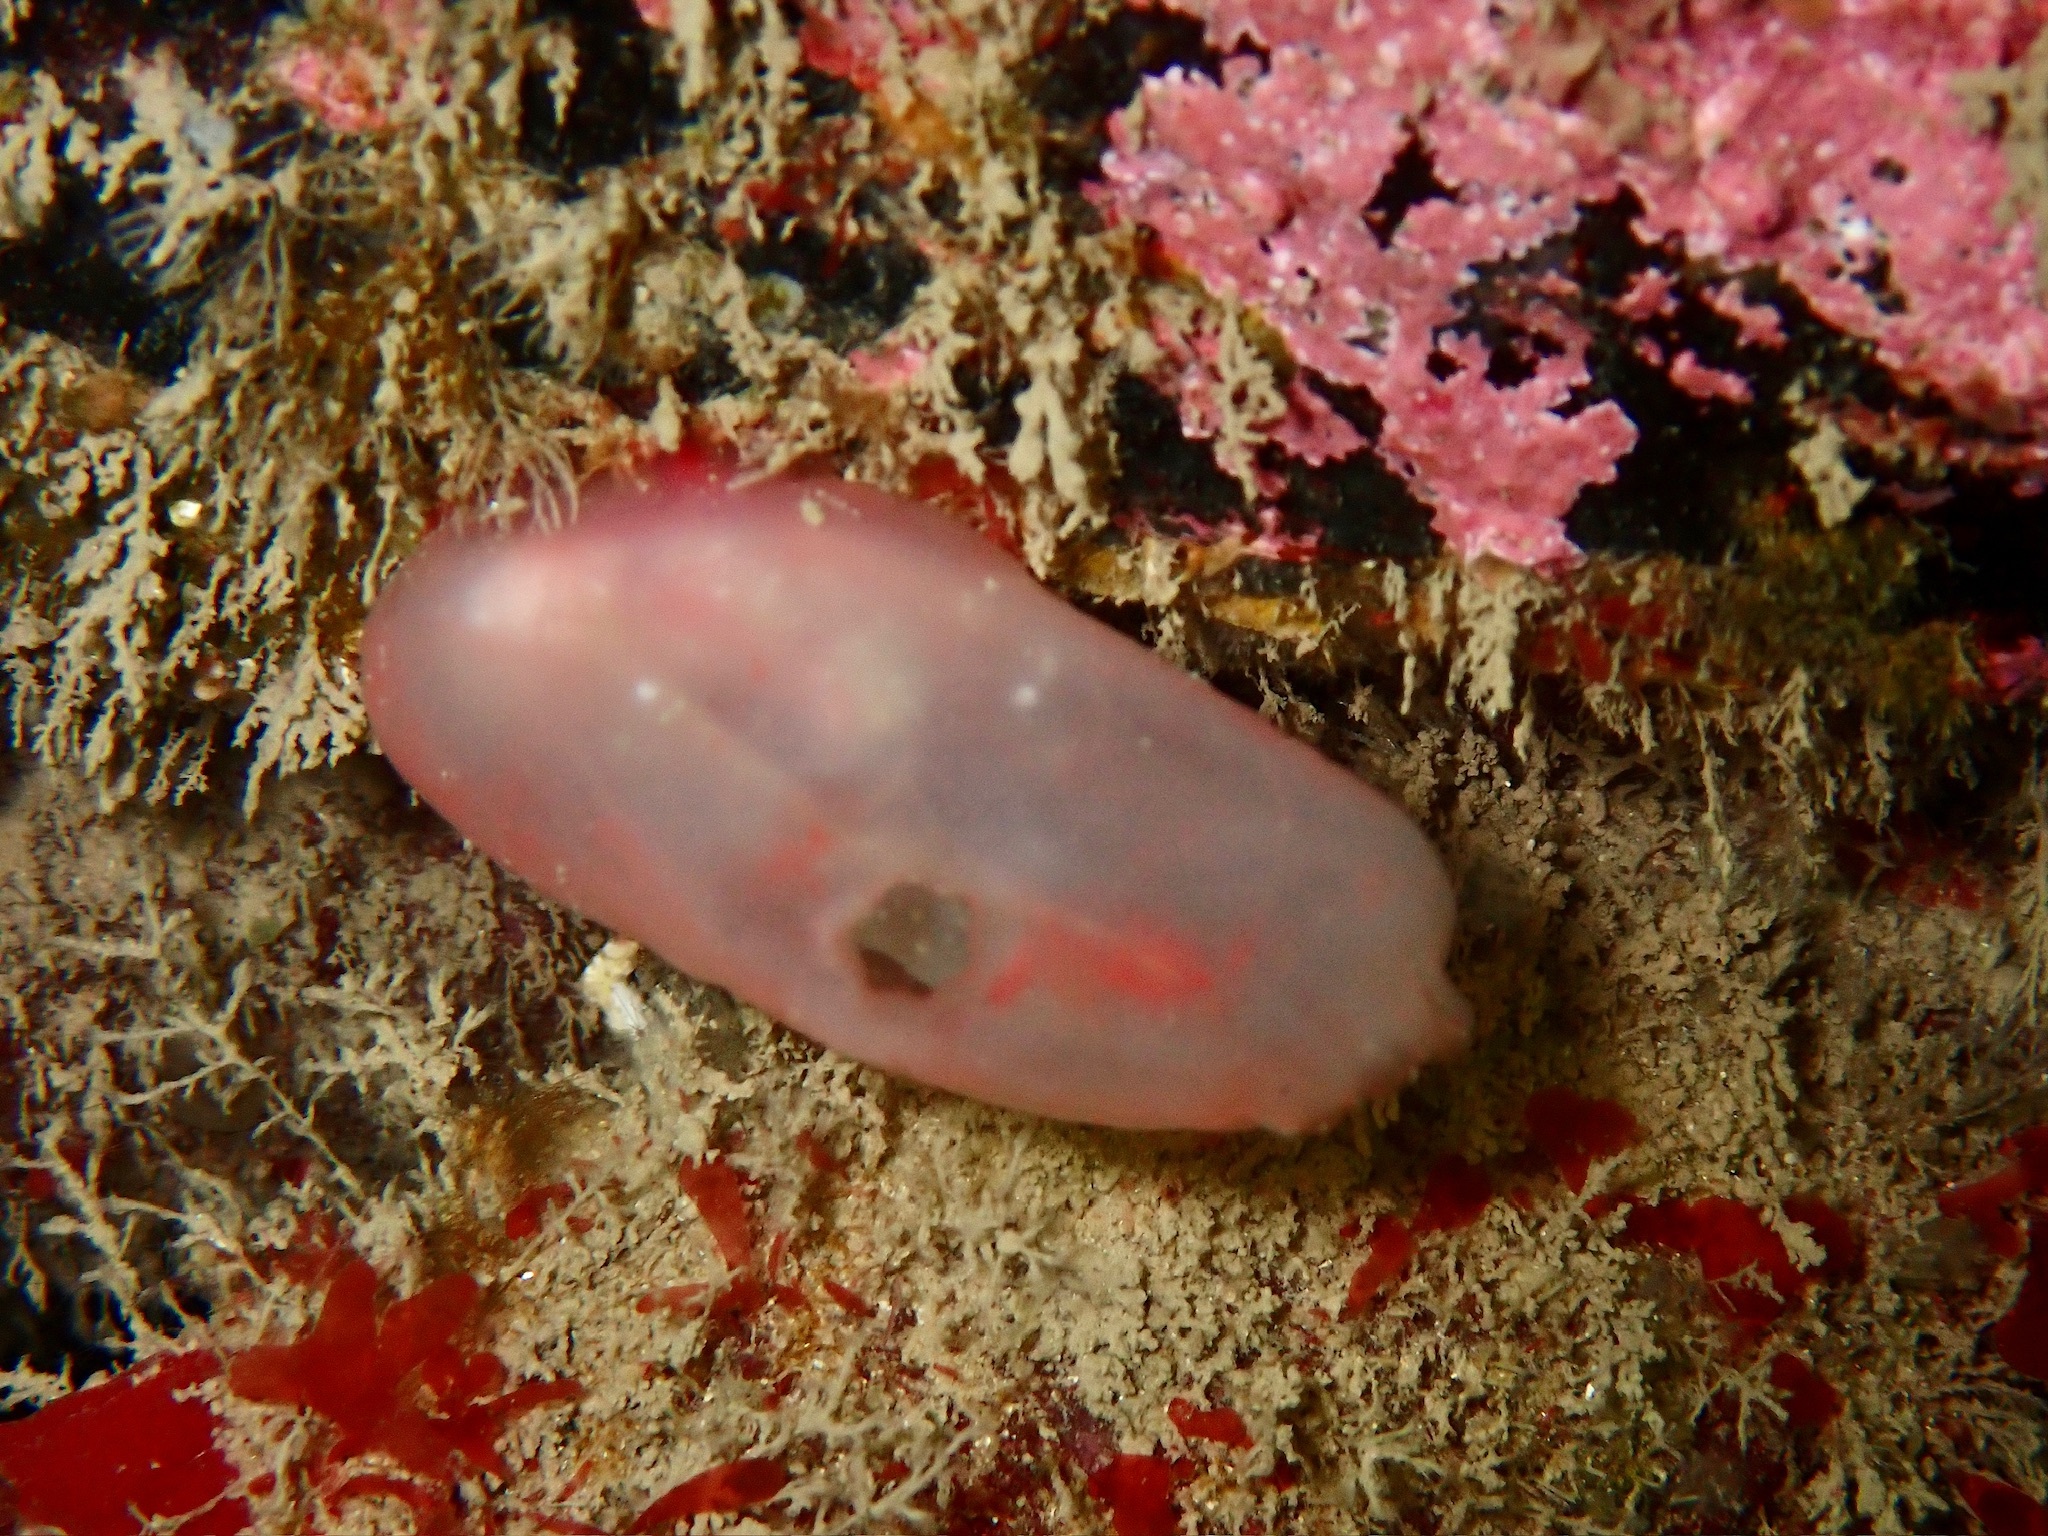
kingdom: Animalia
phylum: Chordata
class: Ascidiacea
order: Phlebobranchia
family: Ascidiidae
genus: Ascidia
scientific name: Ascidia virginea
